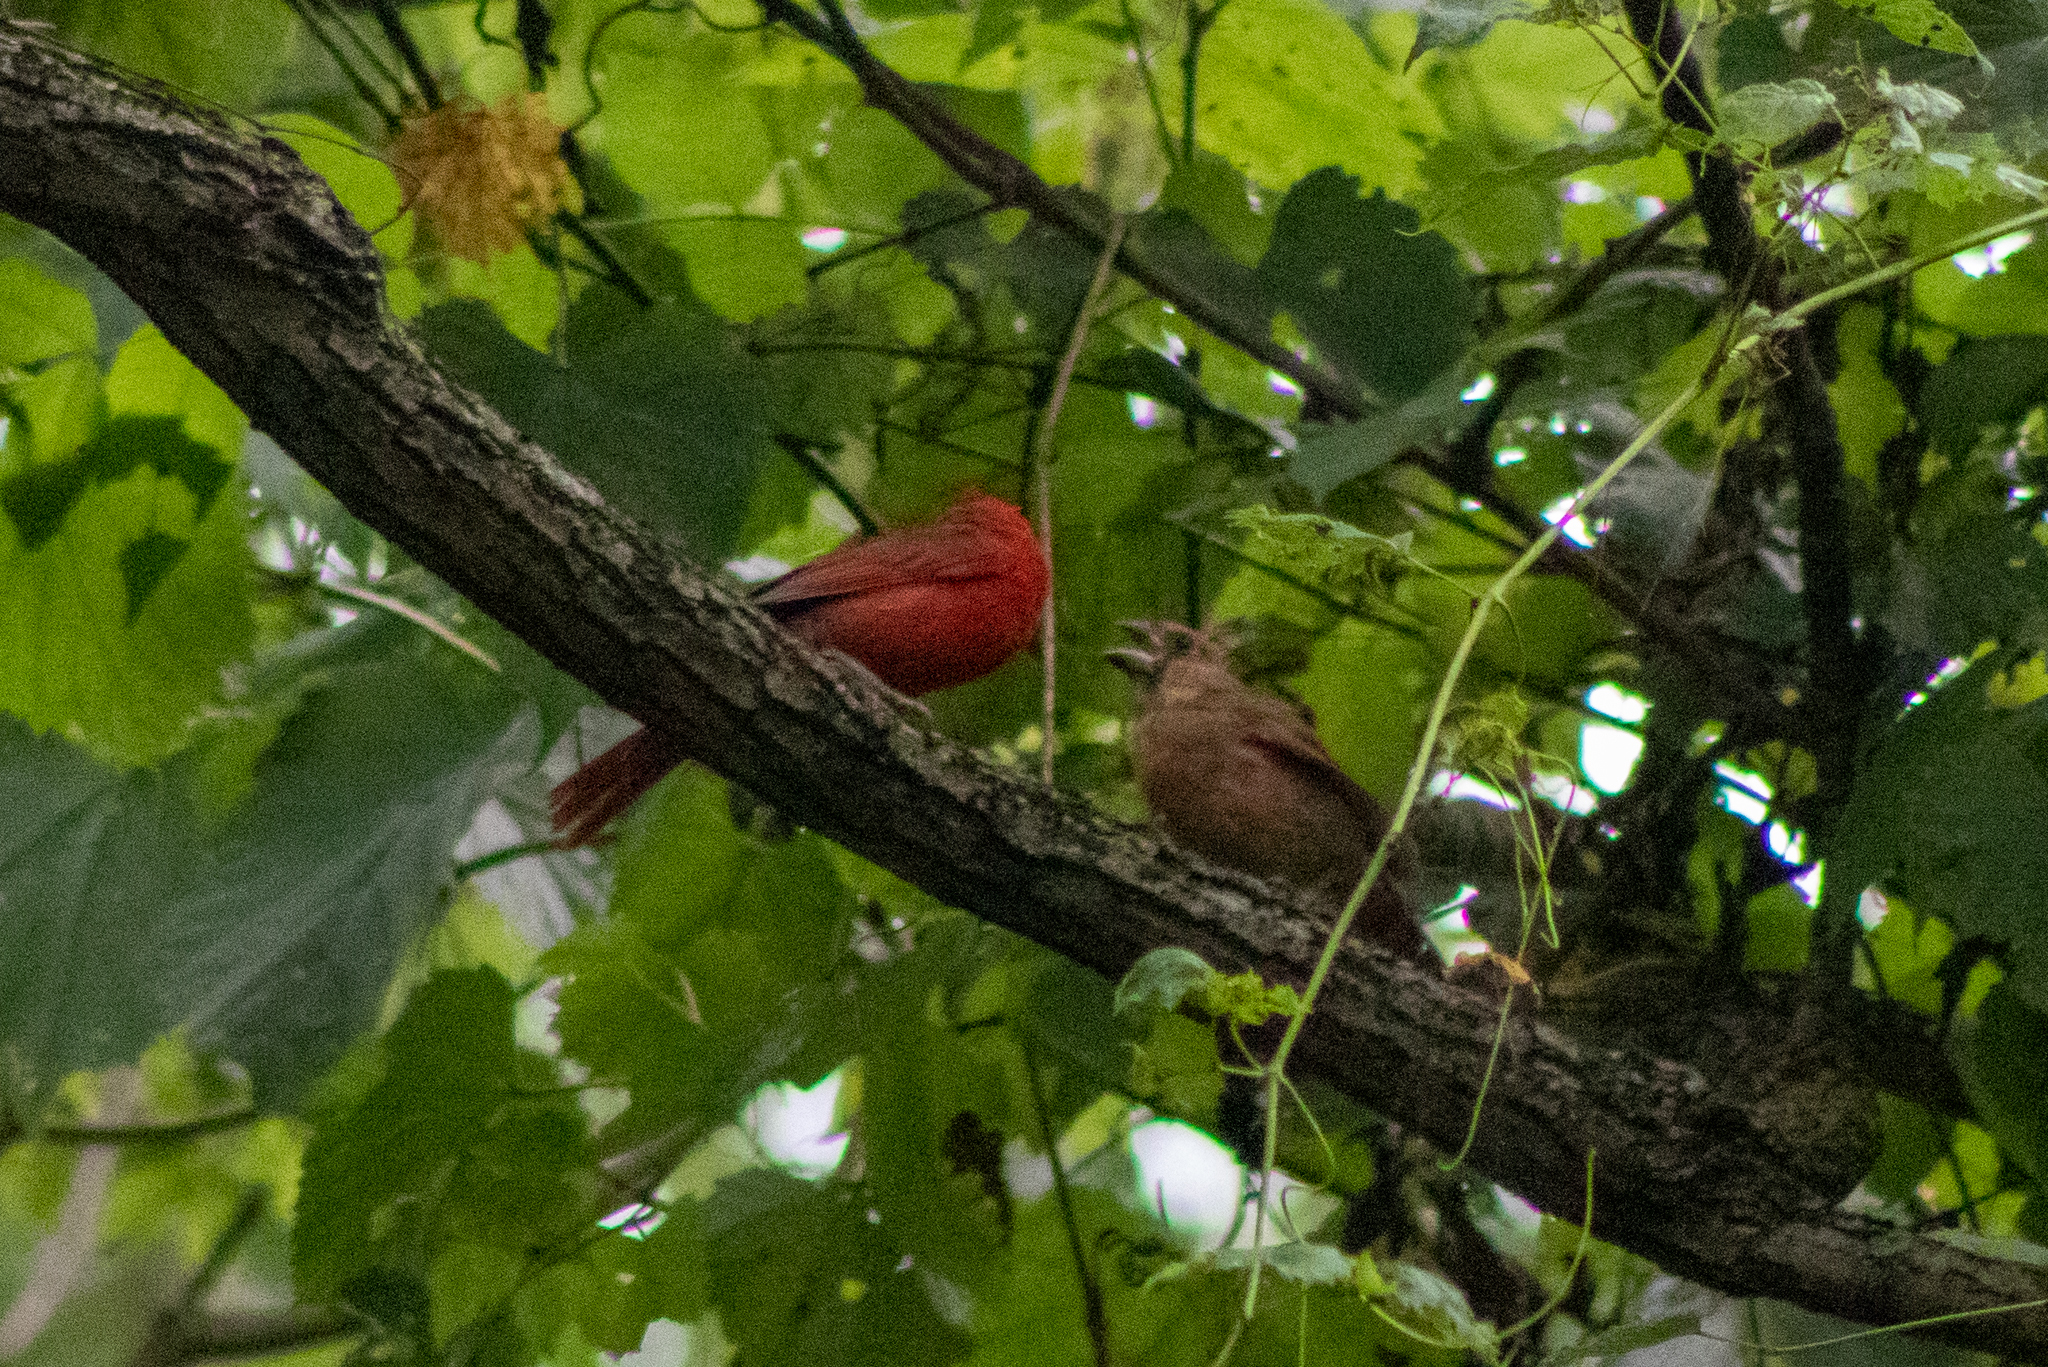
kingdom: Animalia
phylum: Chordata
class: Aves
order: Passeriformes
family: Cardinalidae
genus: Cardinalis
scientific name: Cardinalis cardinalis
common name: Northern cardinal
